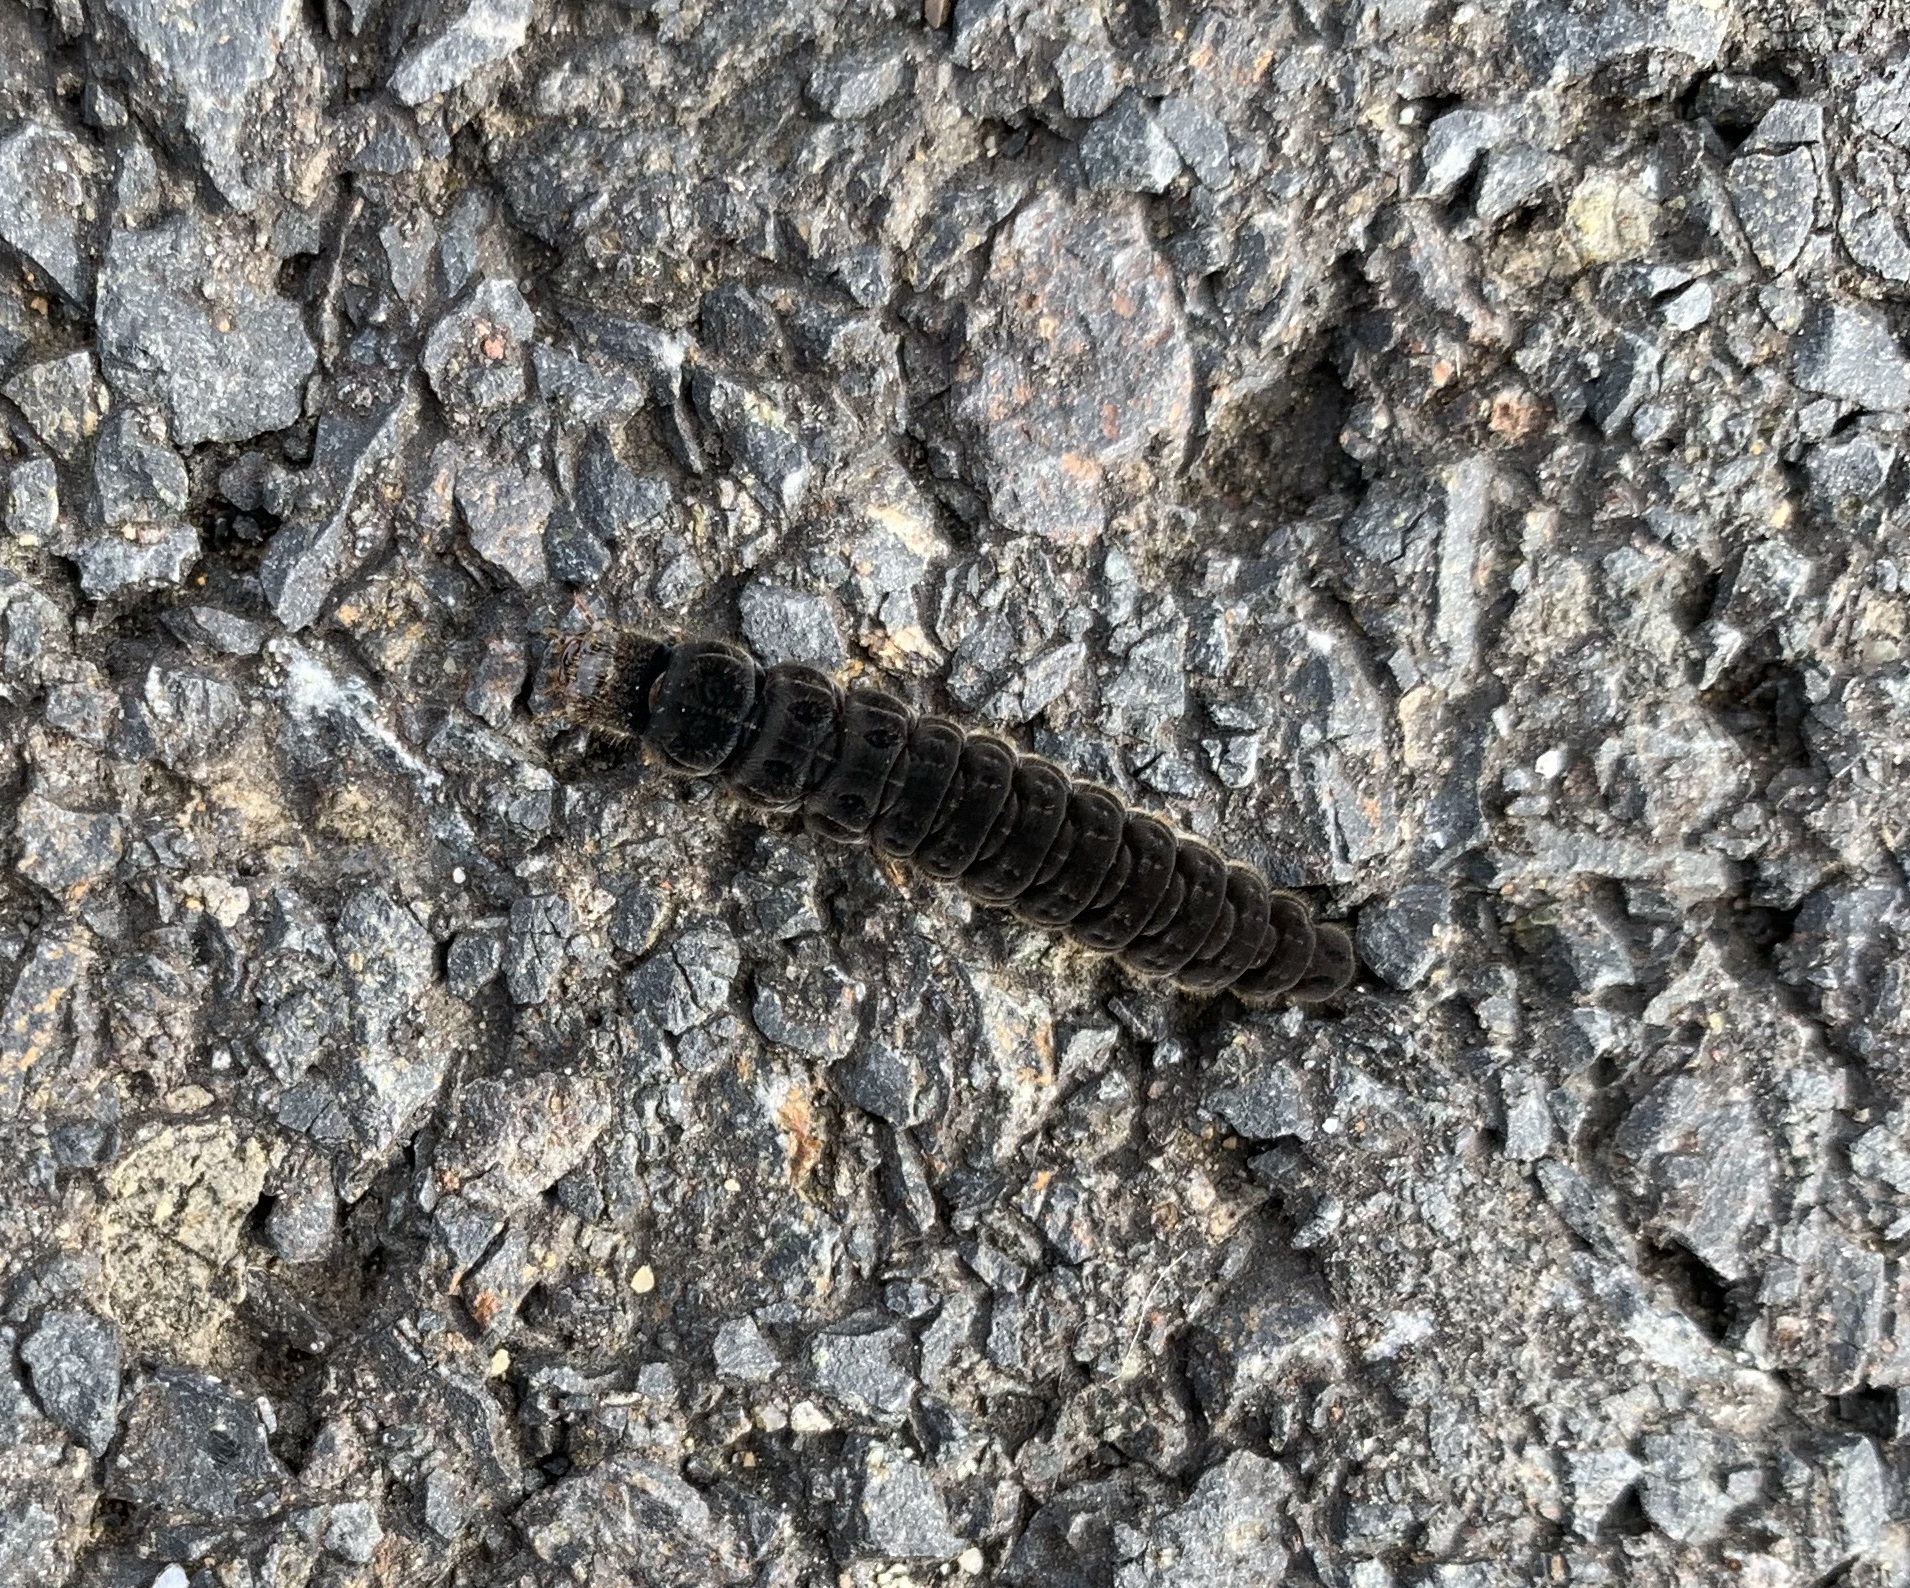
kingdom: Animalia
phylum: Arthropoda
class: Insecta
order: Coleoptera
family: Cantharidae
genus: Cantharis
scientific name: Cantharis
